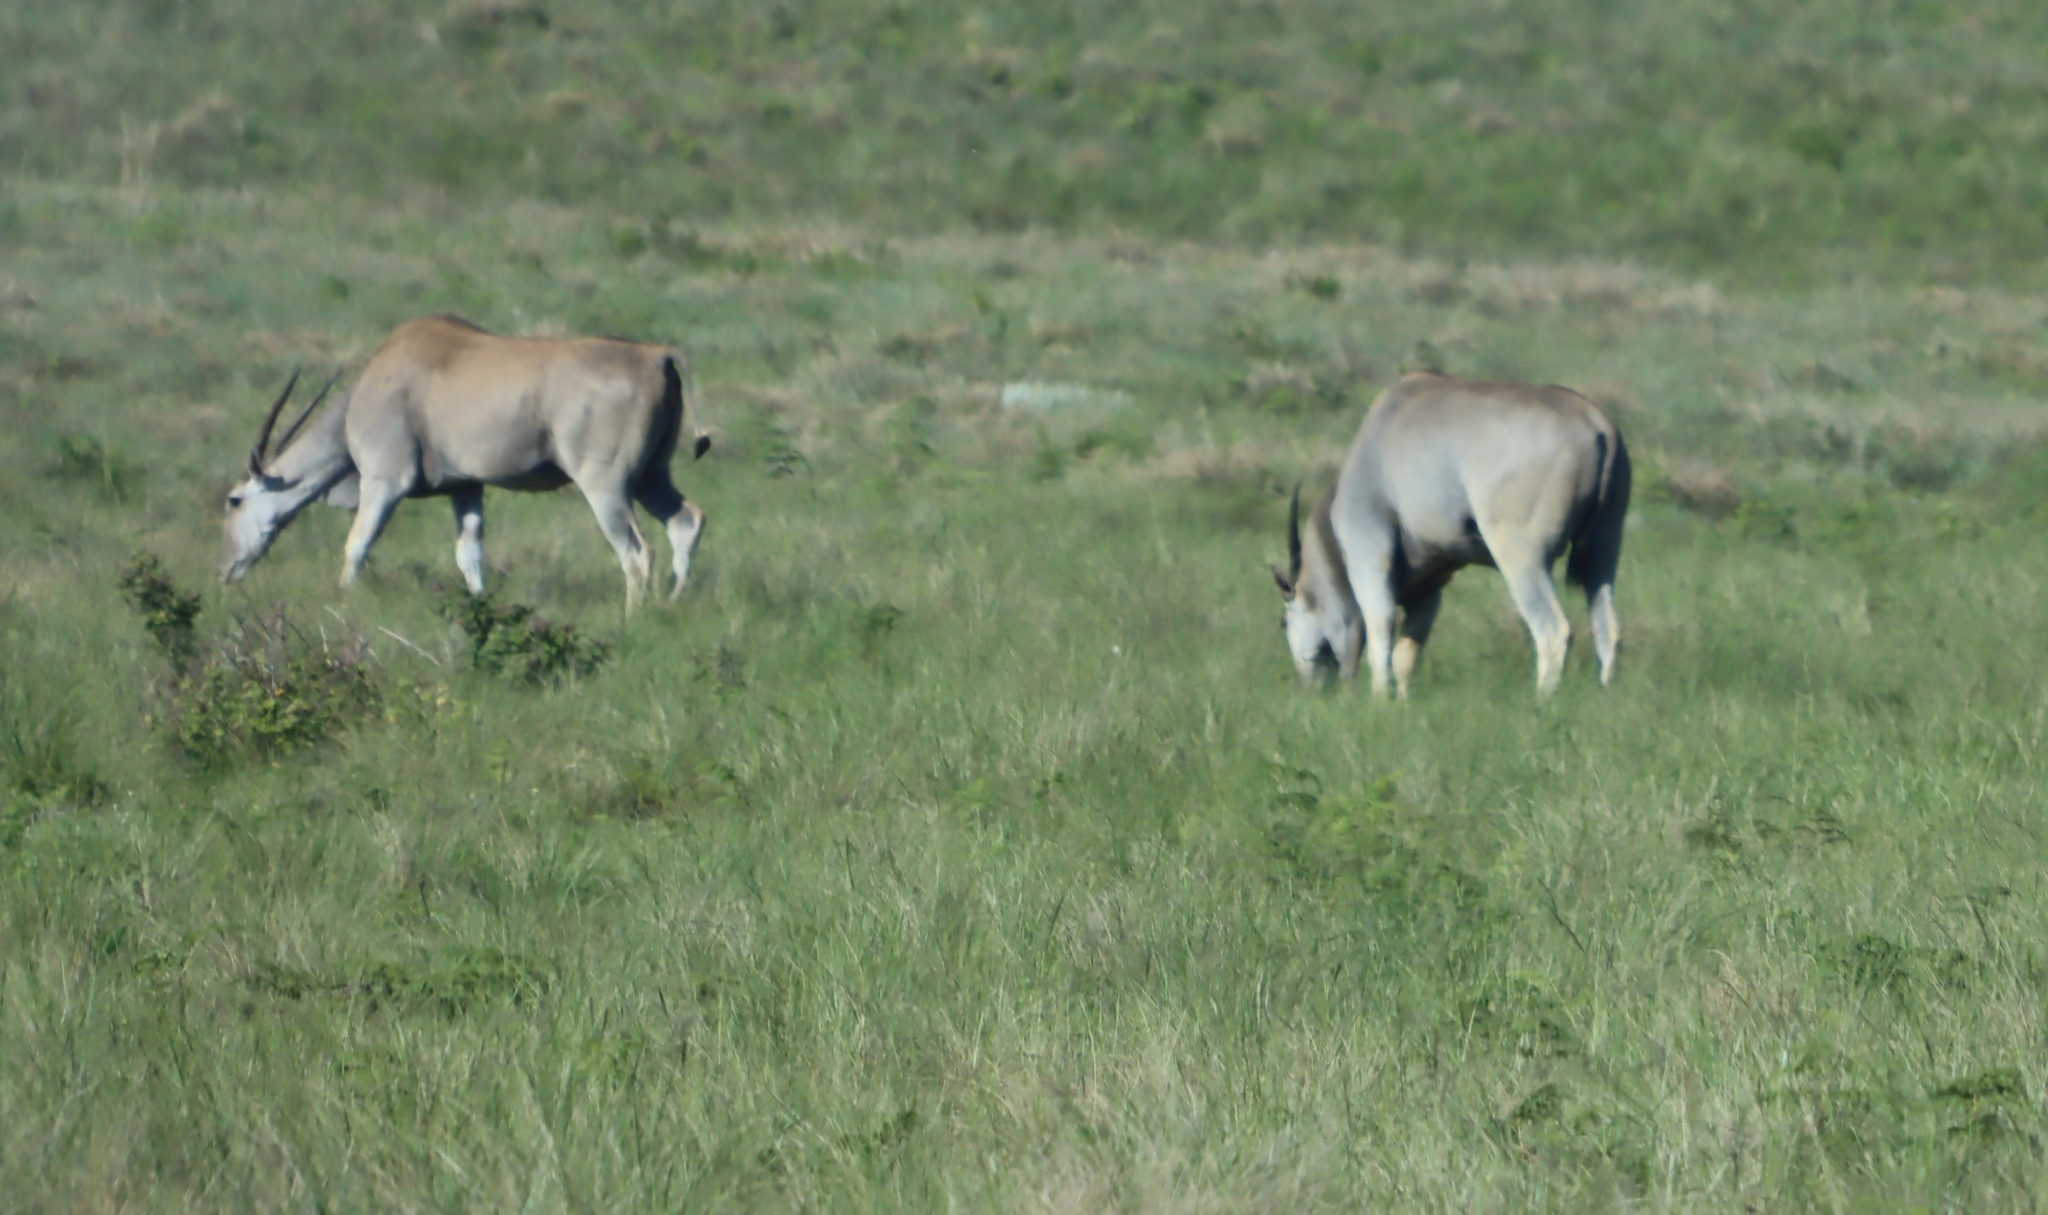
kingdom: Animalia
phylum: Chordata
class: Mammalia
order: Artiodactyla
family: Bovidae
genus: Taurotragus
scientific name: Taurotragus oryx
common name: Common eland
